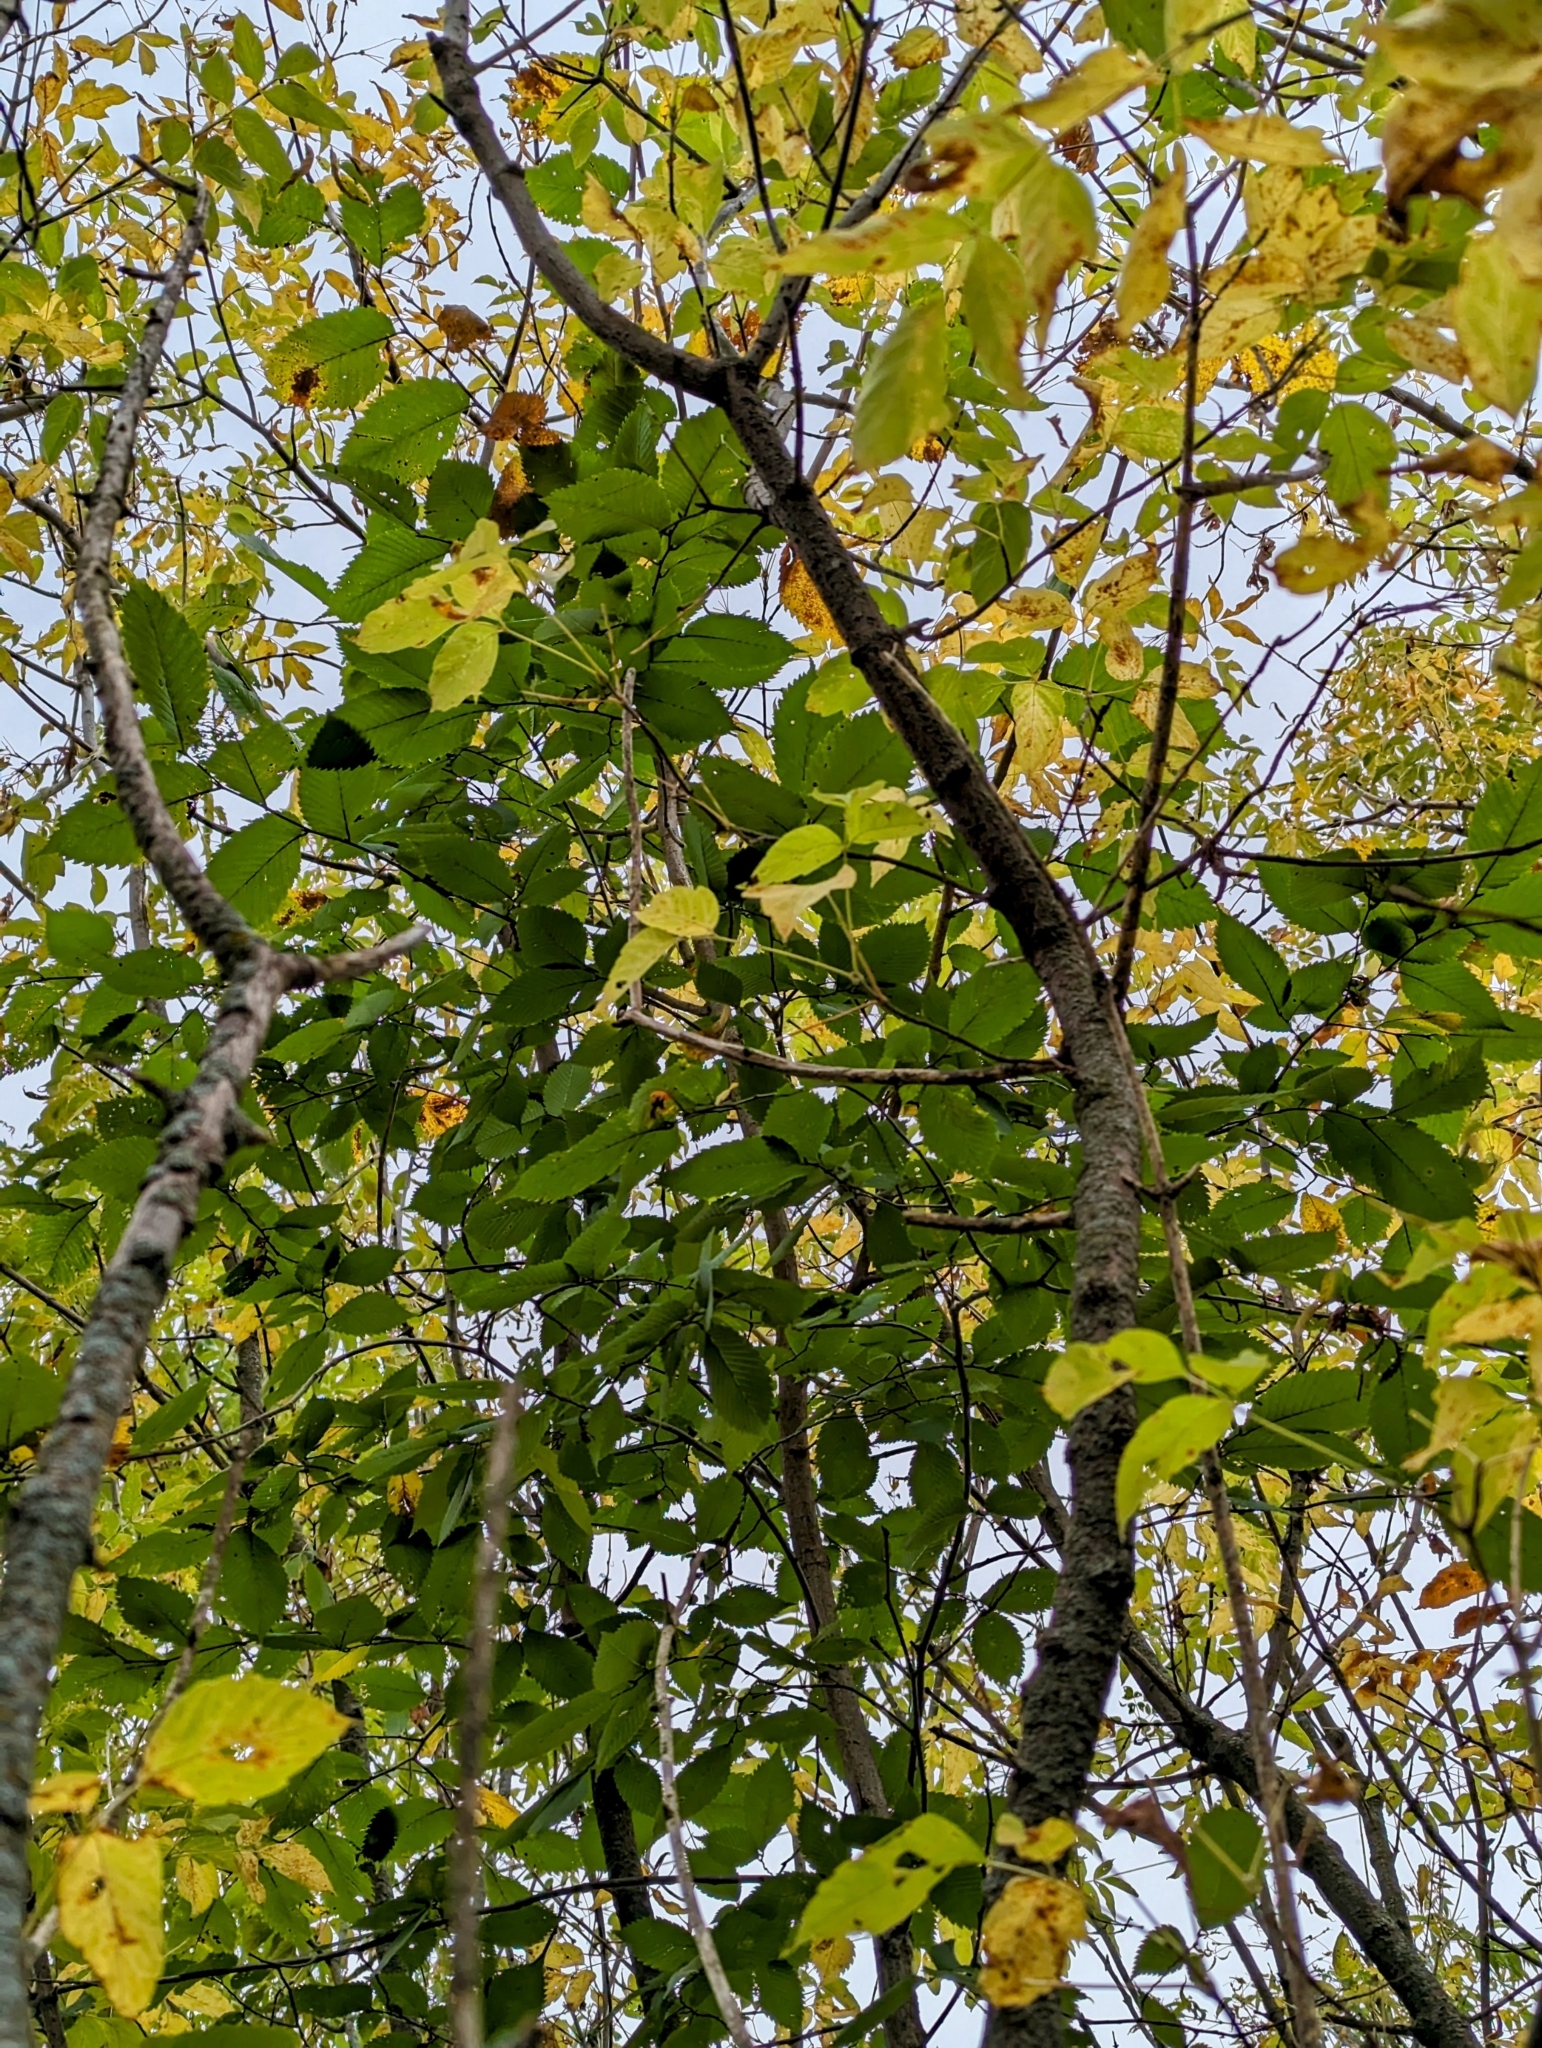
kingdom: Plantae
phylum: Tracheophyta
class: Magnoliopsida
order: Rosales
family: Ulmaceae
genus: Ulmus
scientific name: Ulmus americana
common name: American elm
